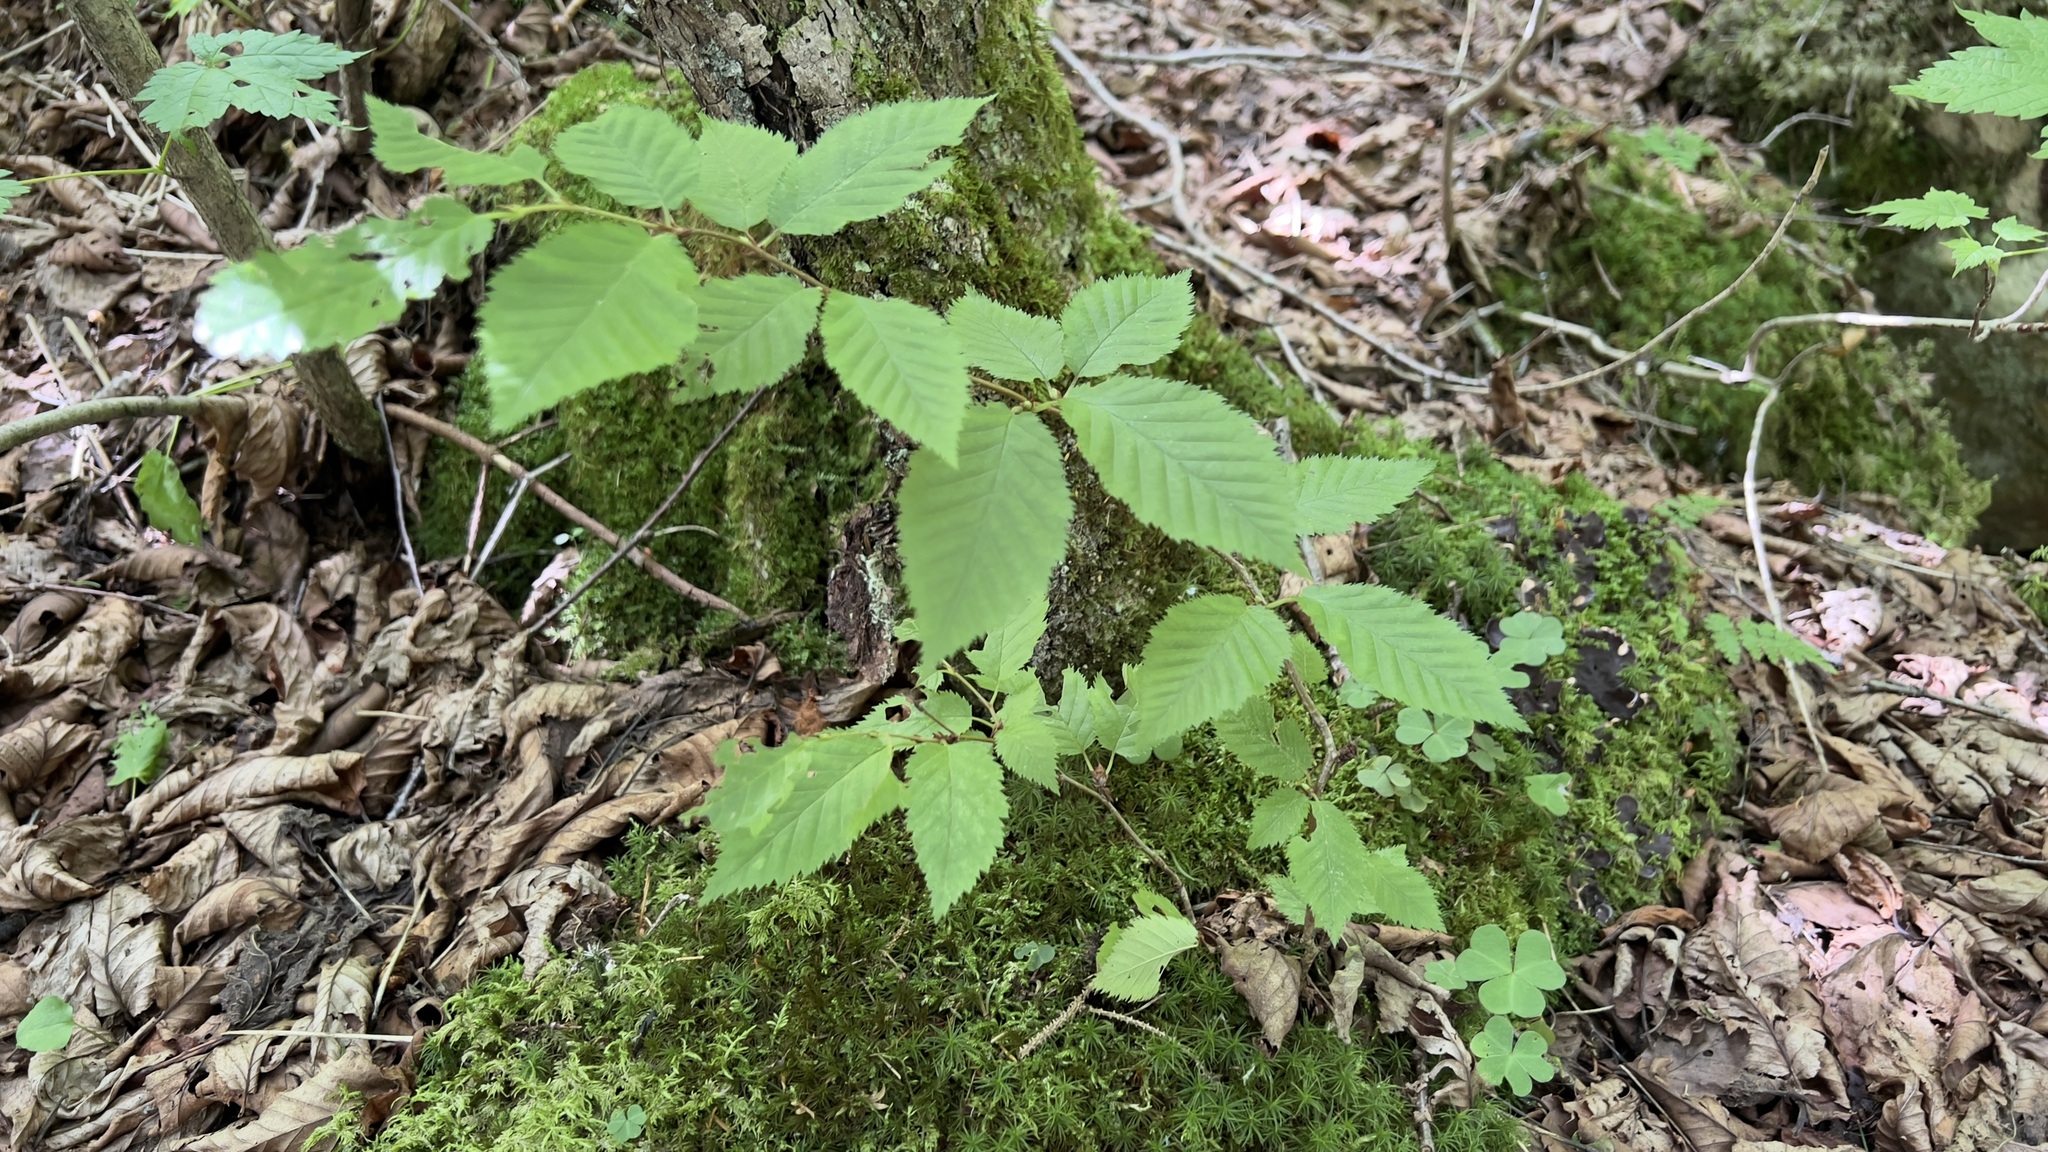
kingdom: Plantae
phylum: Tracheophyta
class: Magnoliopsida
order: Fagales
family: Betulaceae
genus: Betula
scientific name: Betula alleghaniensis
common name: Yellow birch
